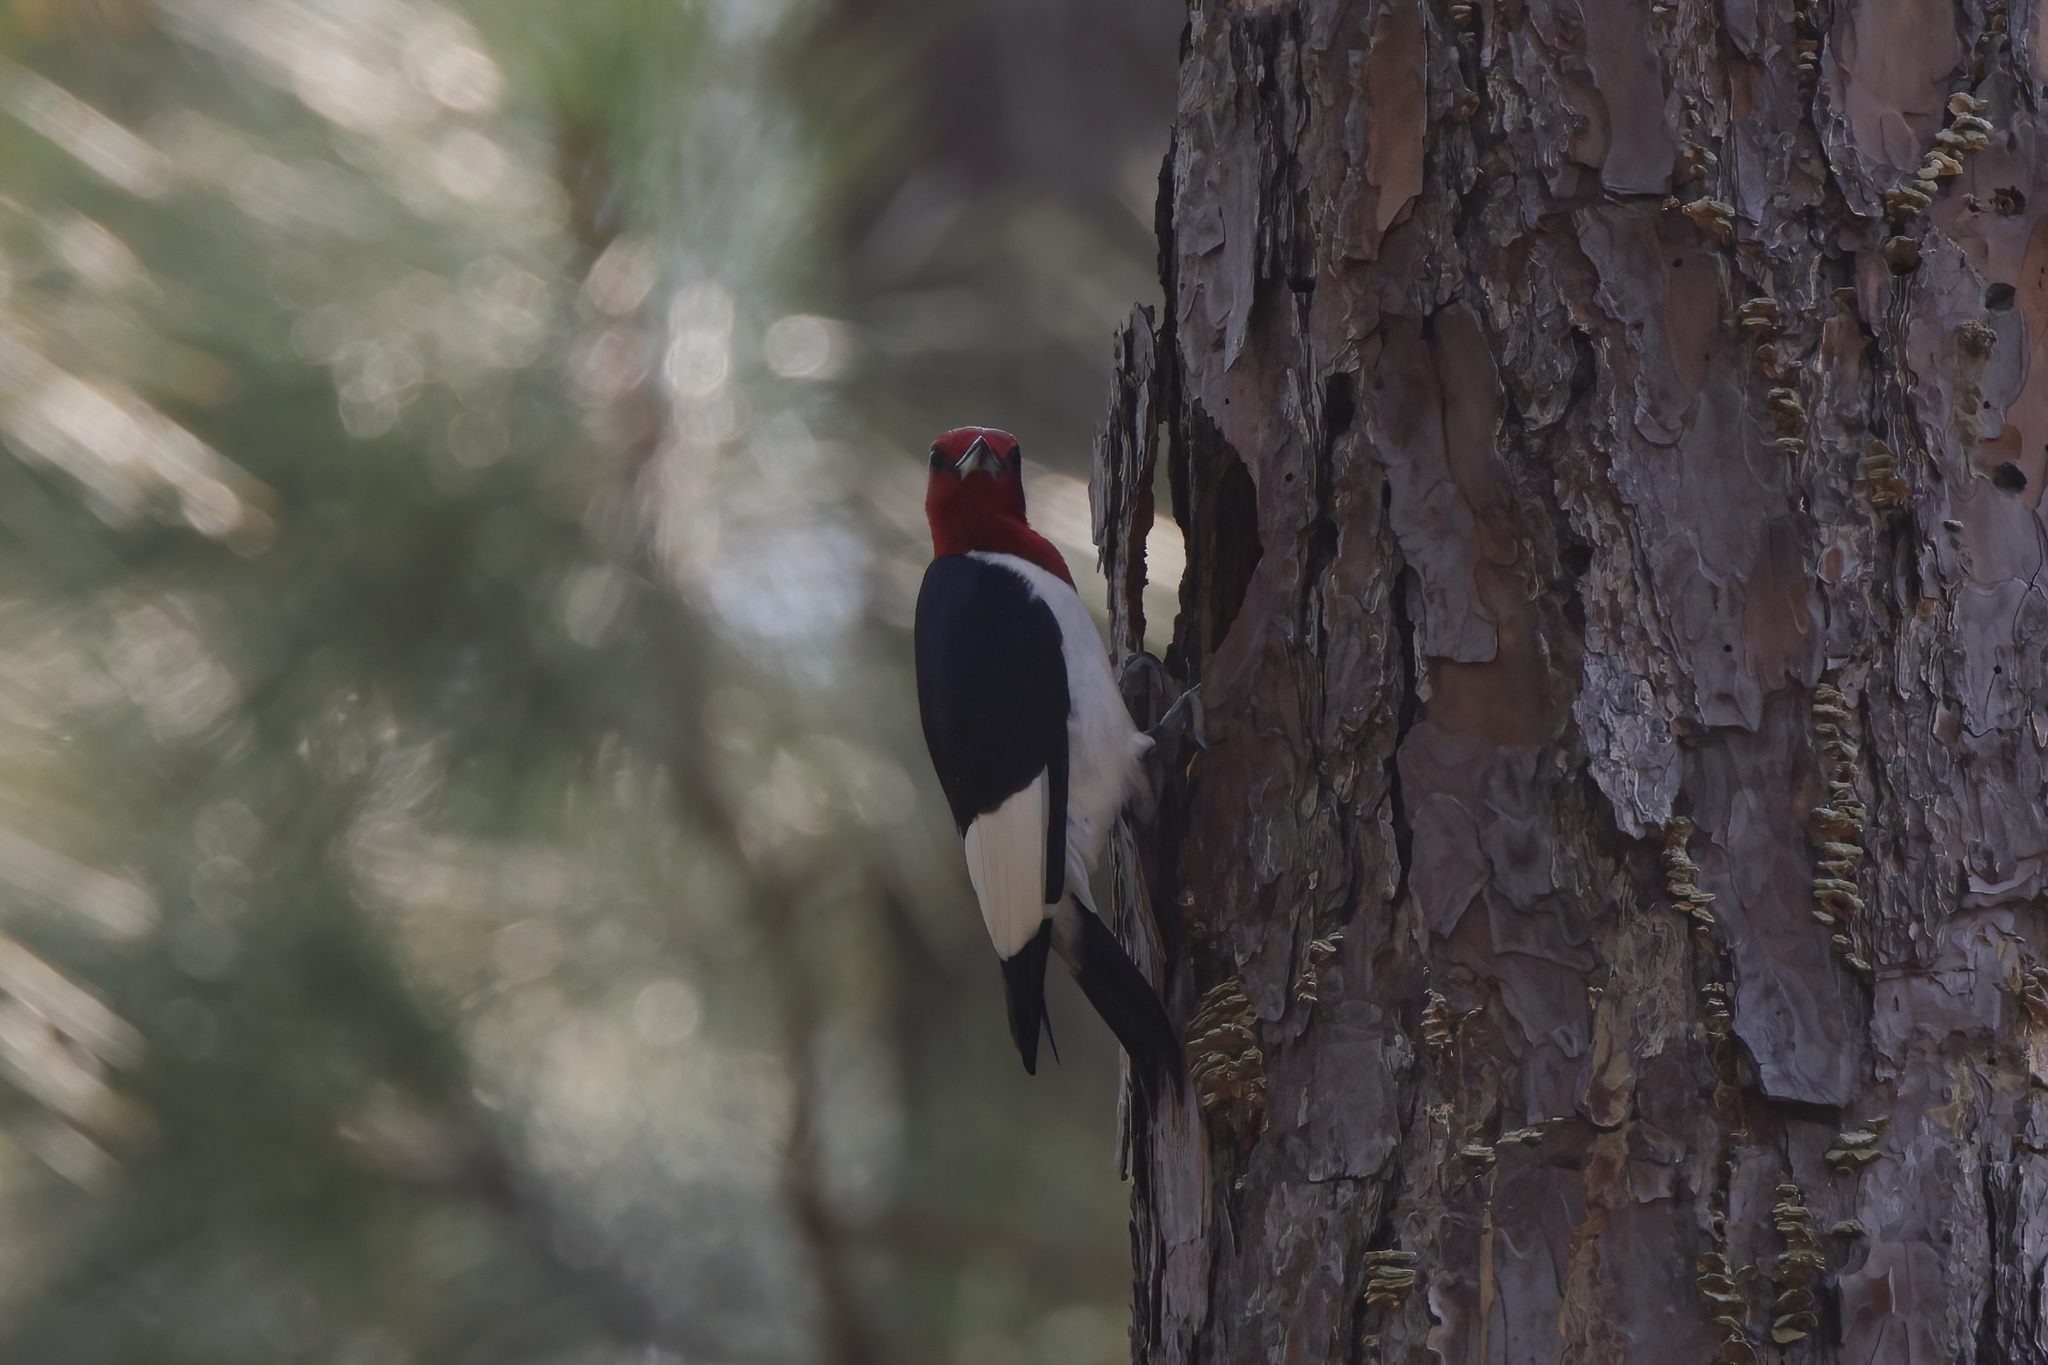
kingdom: Animalia
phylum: Chordata
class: Aves
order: Piciformes
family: Picidae
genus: Melanerpes
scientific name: Melanerpes erythrocephalus
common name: Red-headed woodpecker
